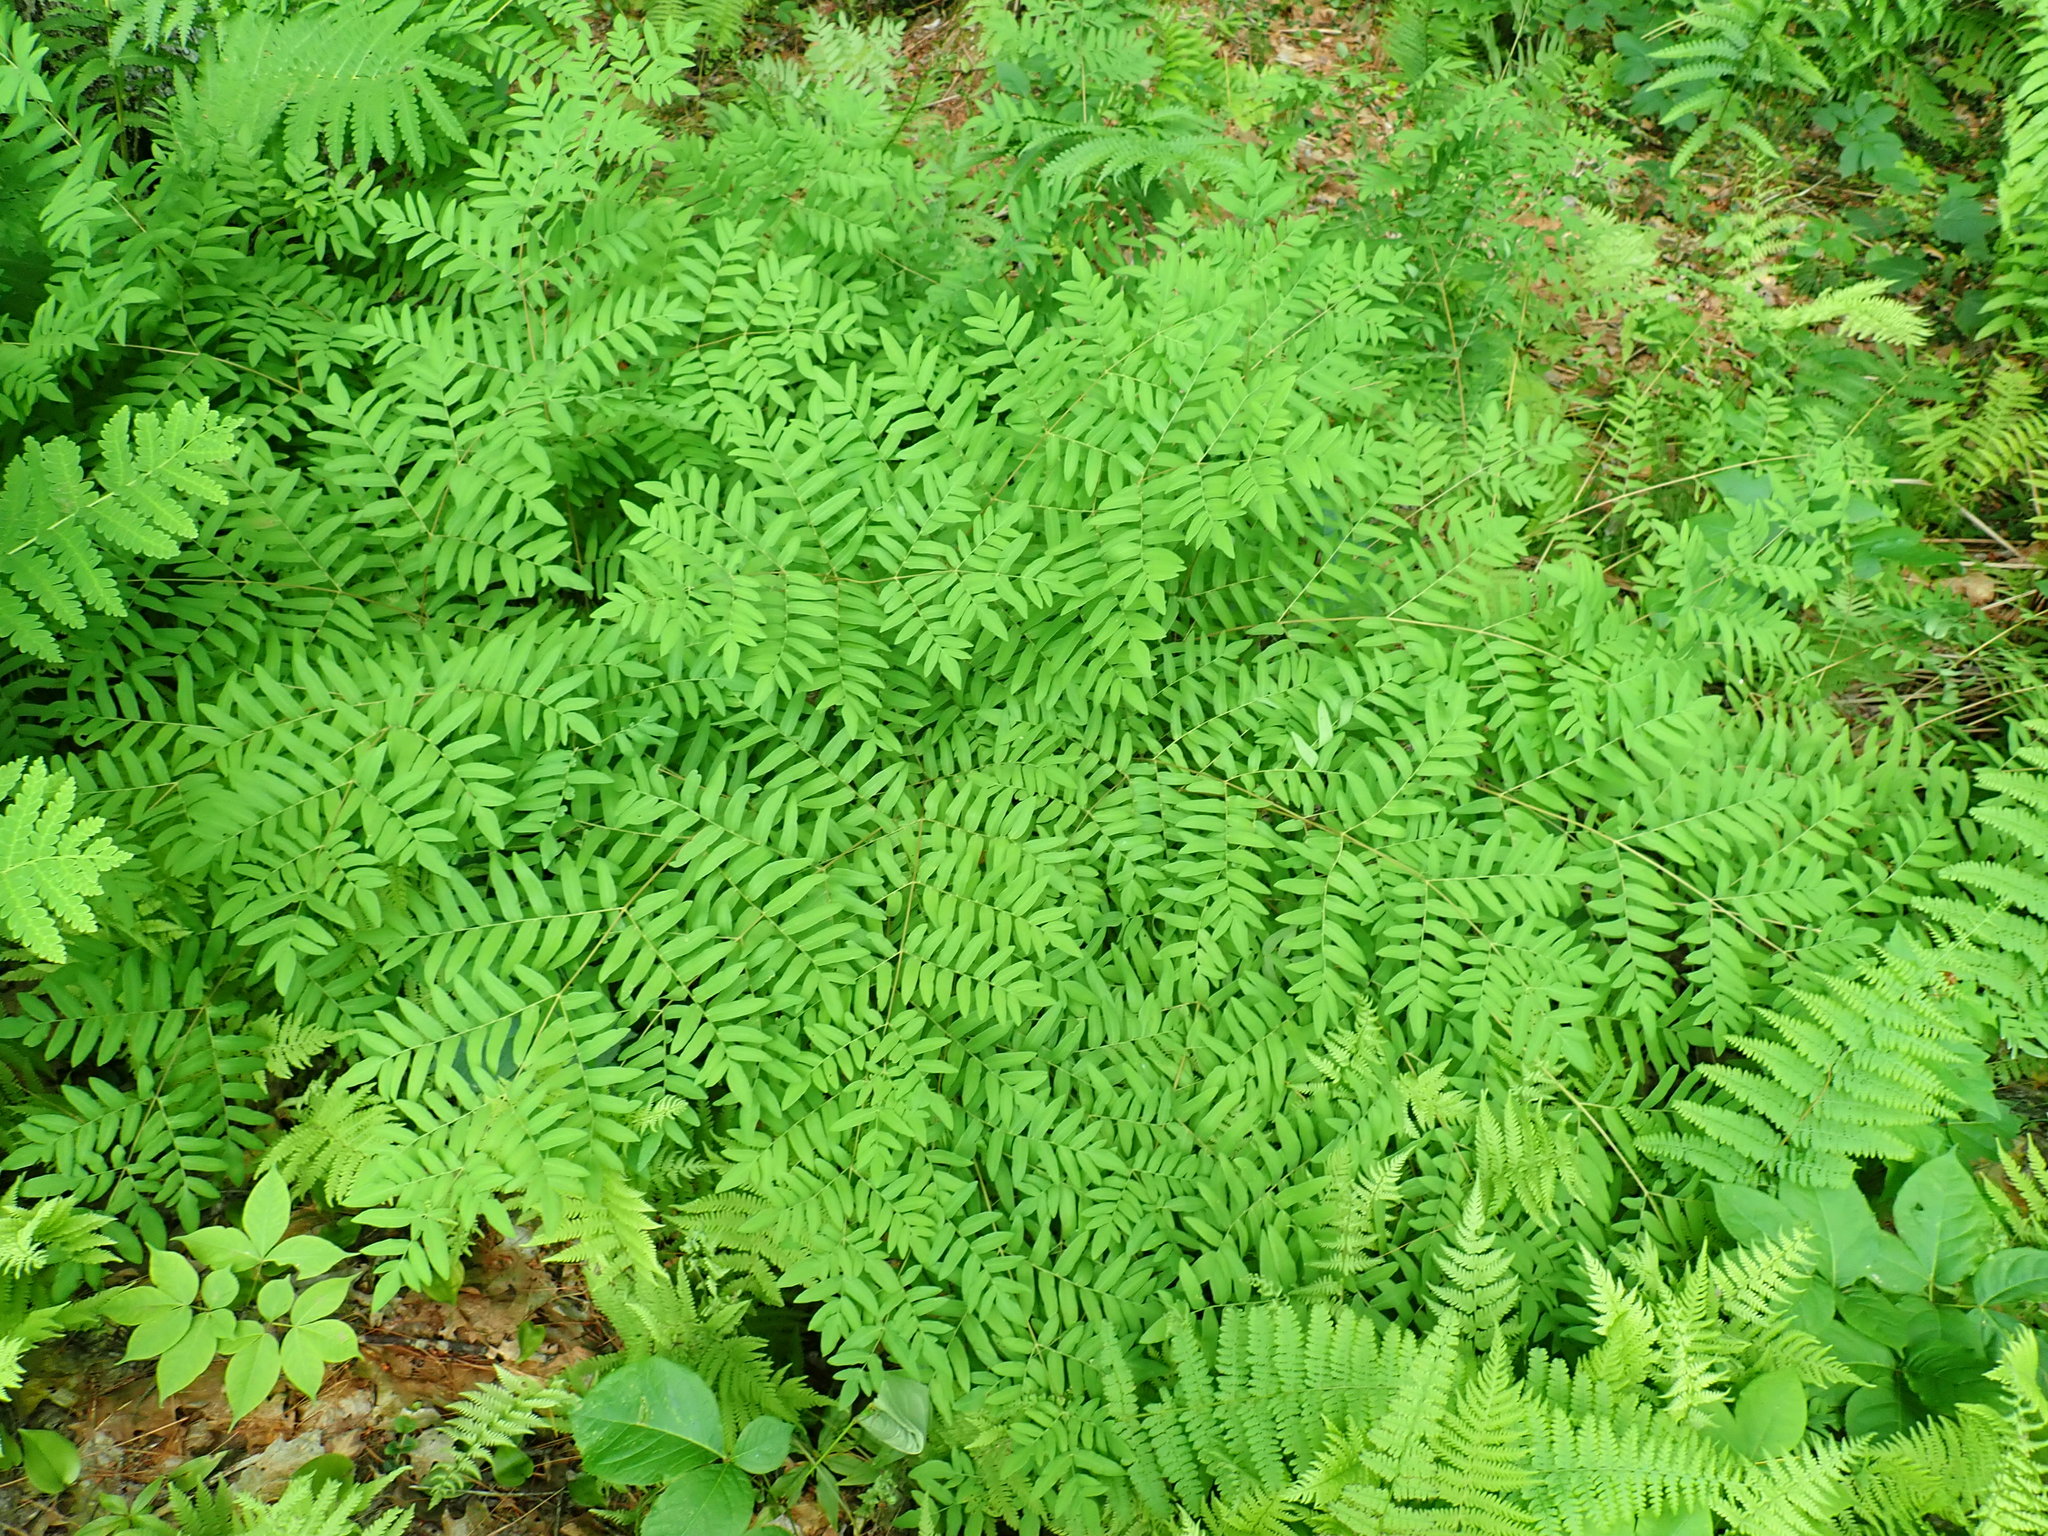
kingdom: Plantae
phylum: Tracheophyta
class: Polypodiopsida
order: Osmundales
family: Osmundaceae
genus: Osmunda
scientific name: Osmunda spectabilis
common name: American royal fern
